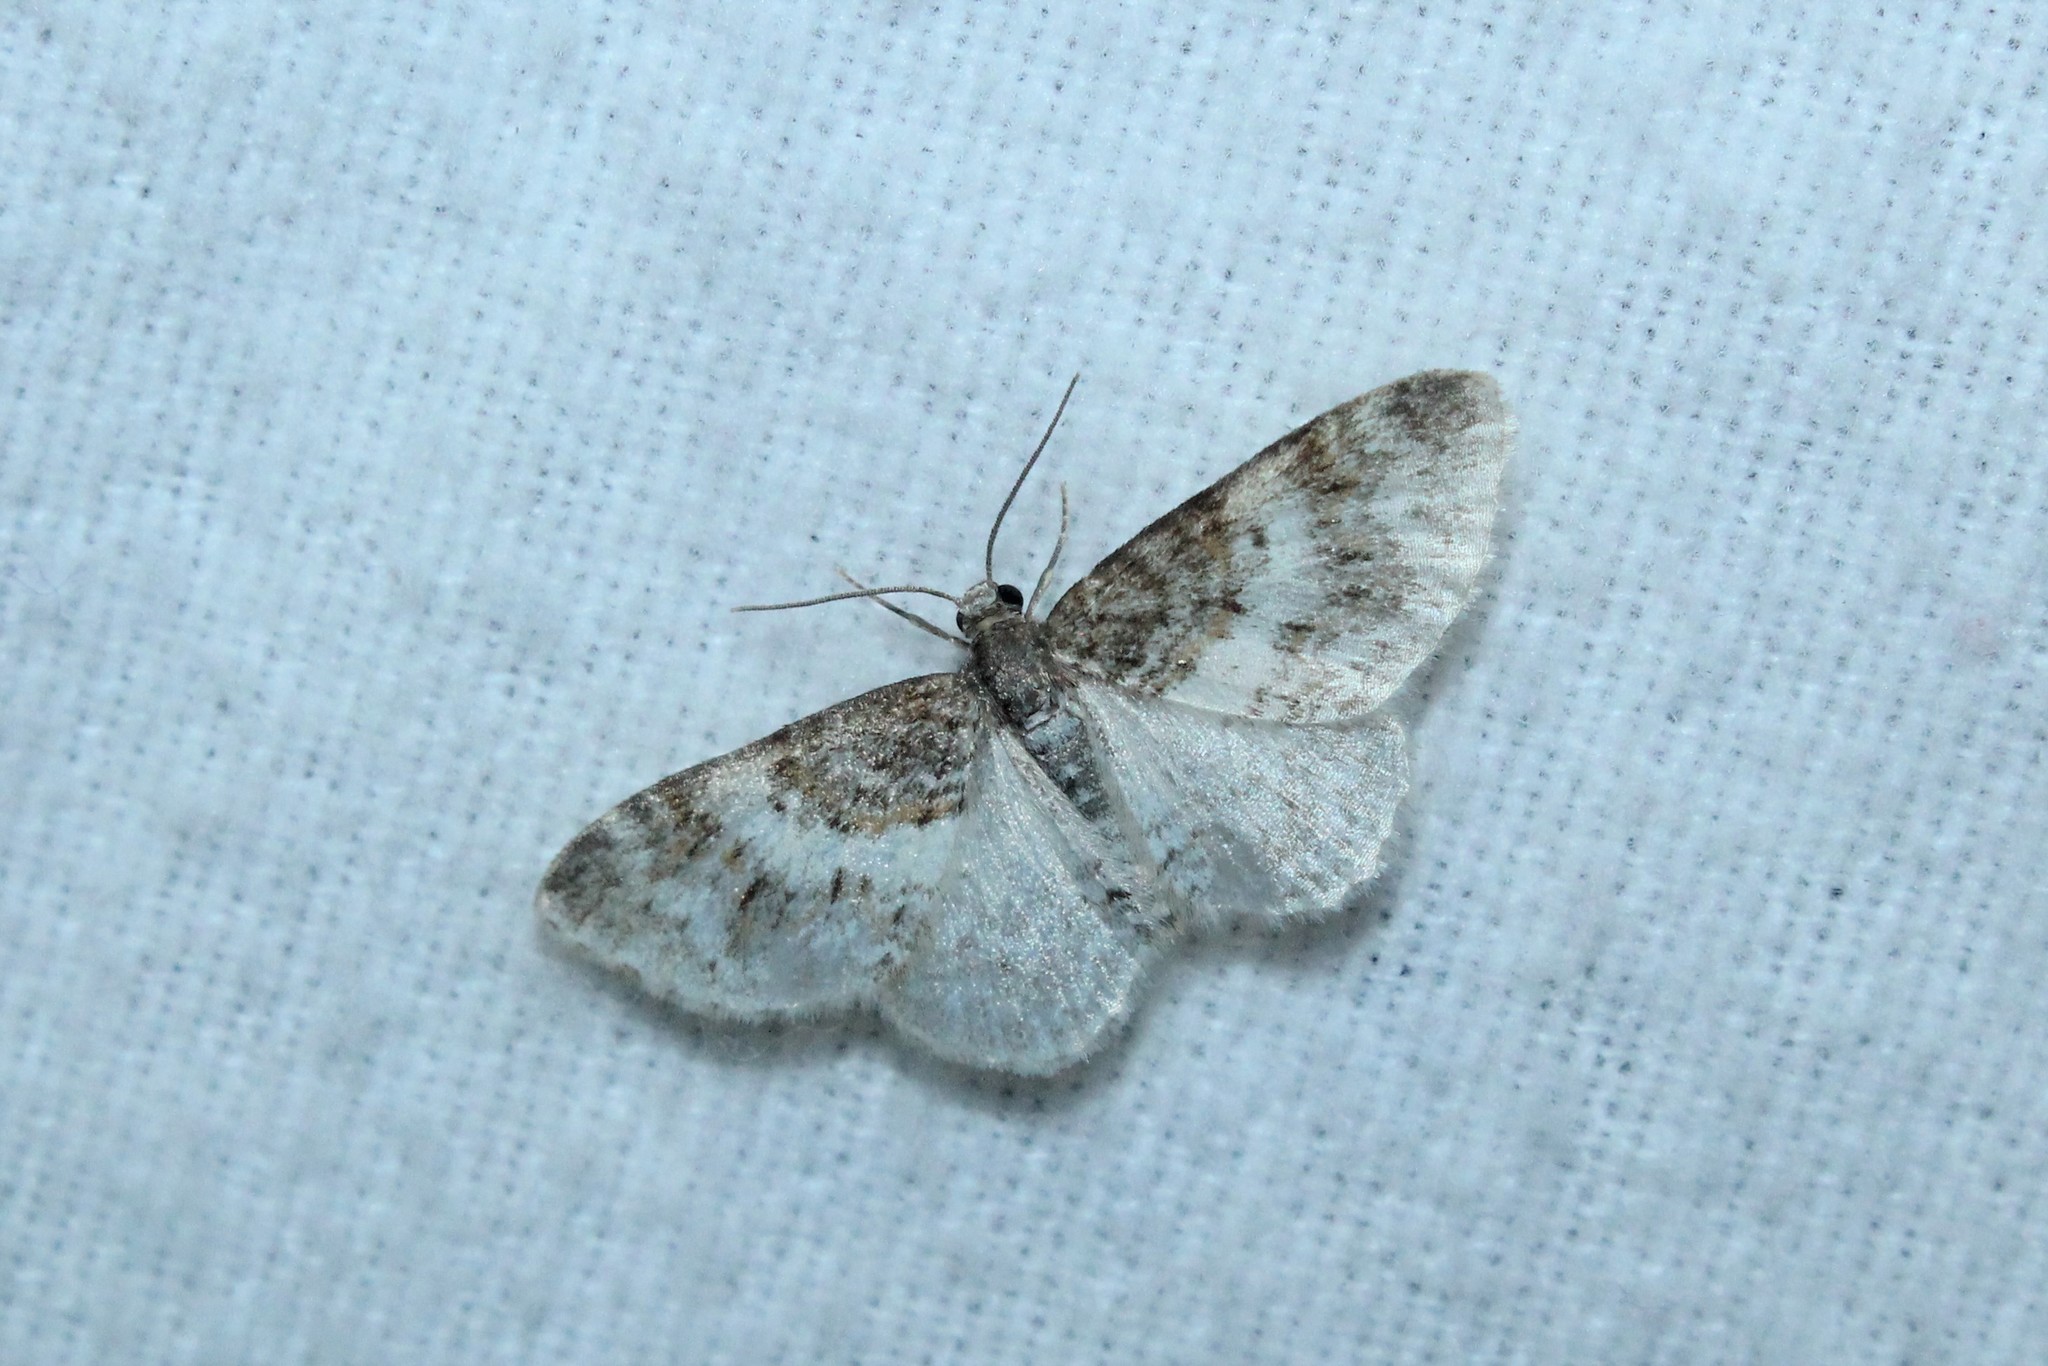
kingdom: Animalia
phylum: Arthropoda
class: Insecta
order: Lepidoptera
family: Geometridae
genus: Hydrelia
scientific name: Hydrelia condensata
